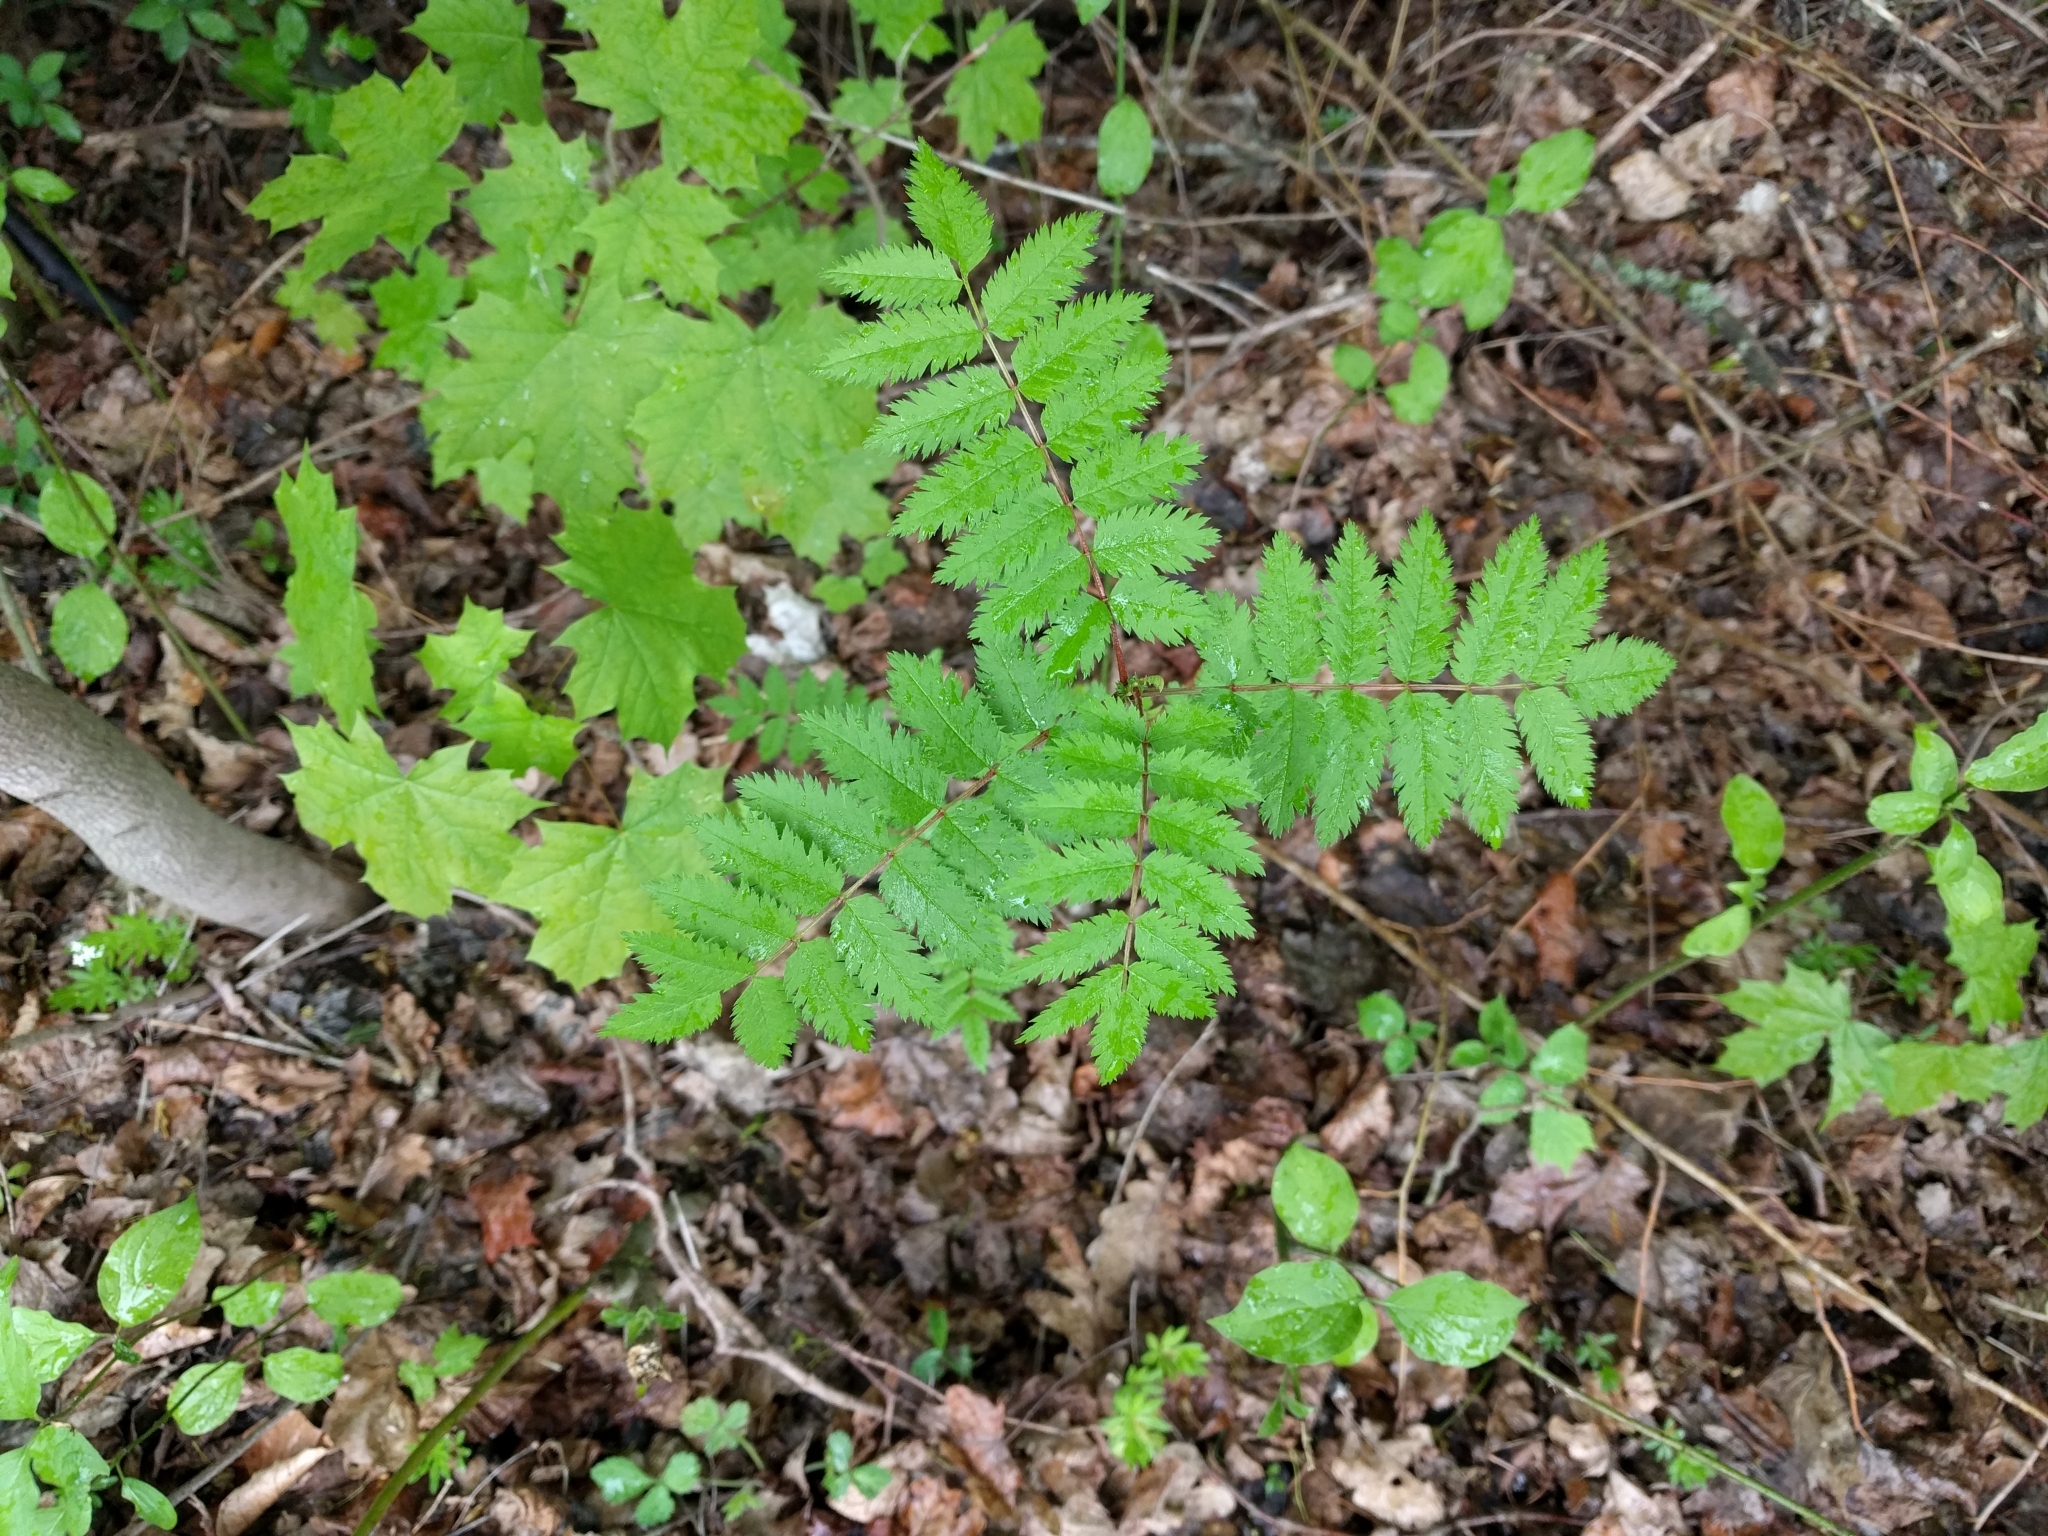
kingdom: Plantae
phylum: Tracheophyta
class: Magnoliopsida
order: Rosales
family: Rosaceae
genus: Sorbus
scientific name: Sorbus aucuparia
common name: Rowan
